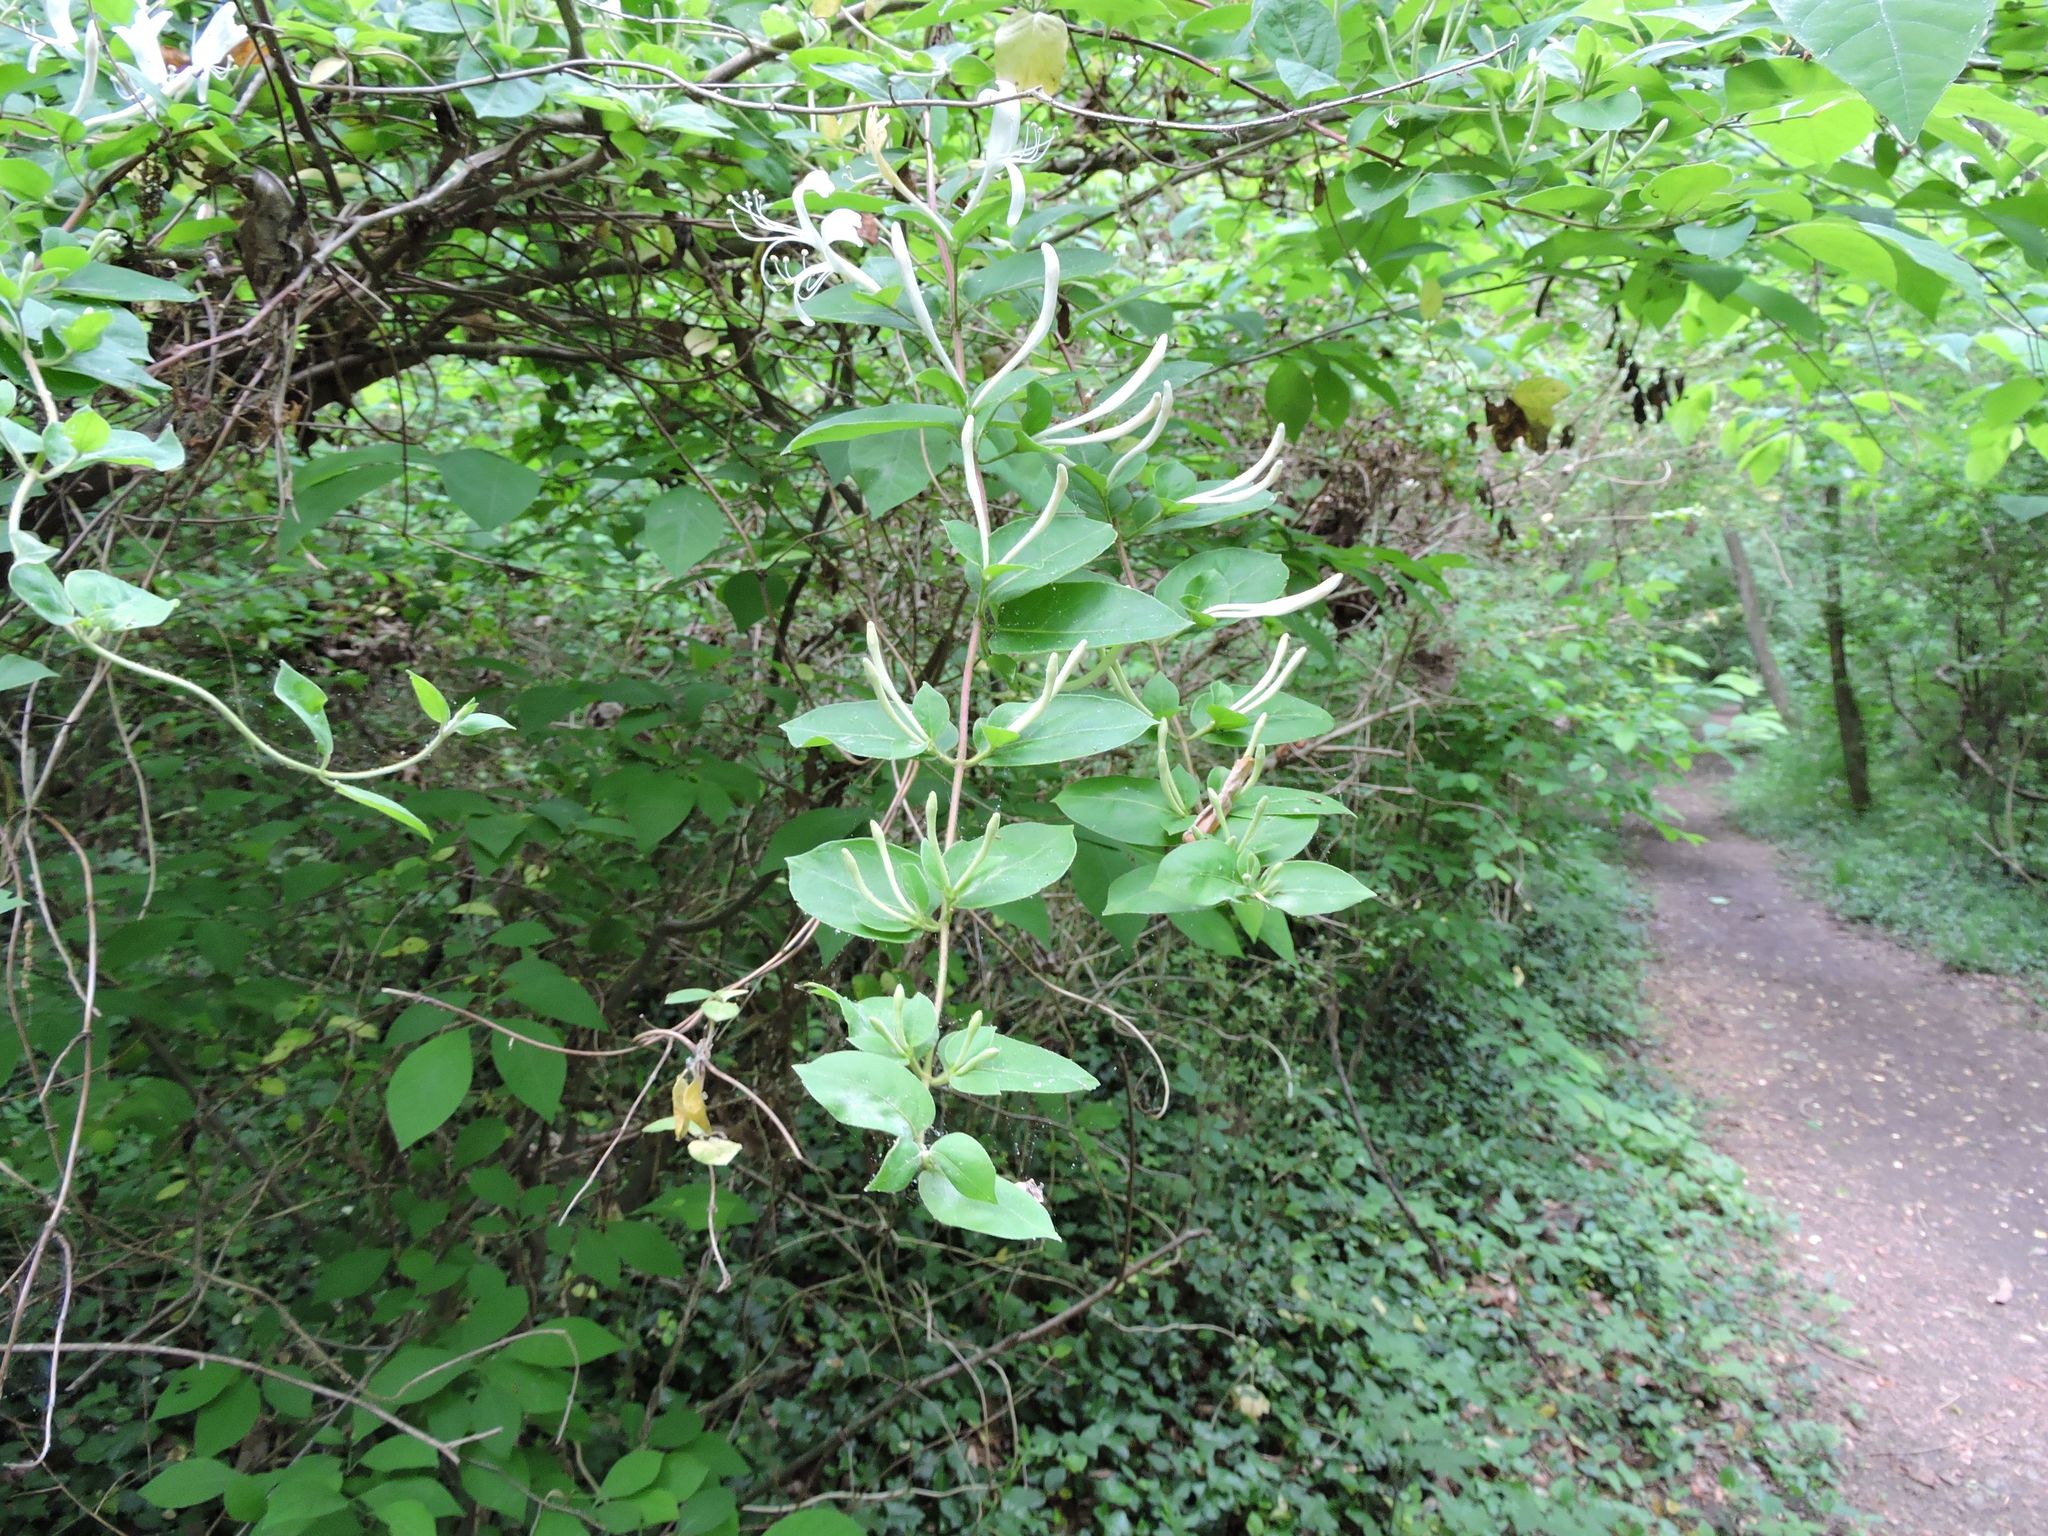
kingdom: Plantae
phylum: Tracheophyta
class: Magnoliopsida
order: Dipsacales
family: Caprifoliaceae
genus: Lonicera
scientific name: Lonicera japonica
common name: Japanese honeysuckle
